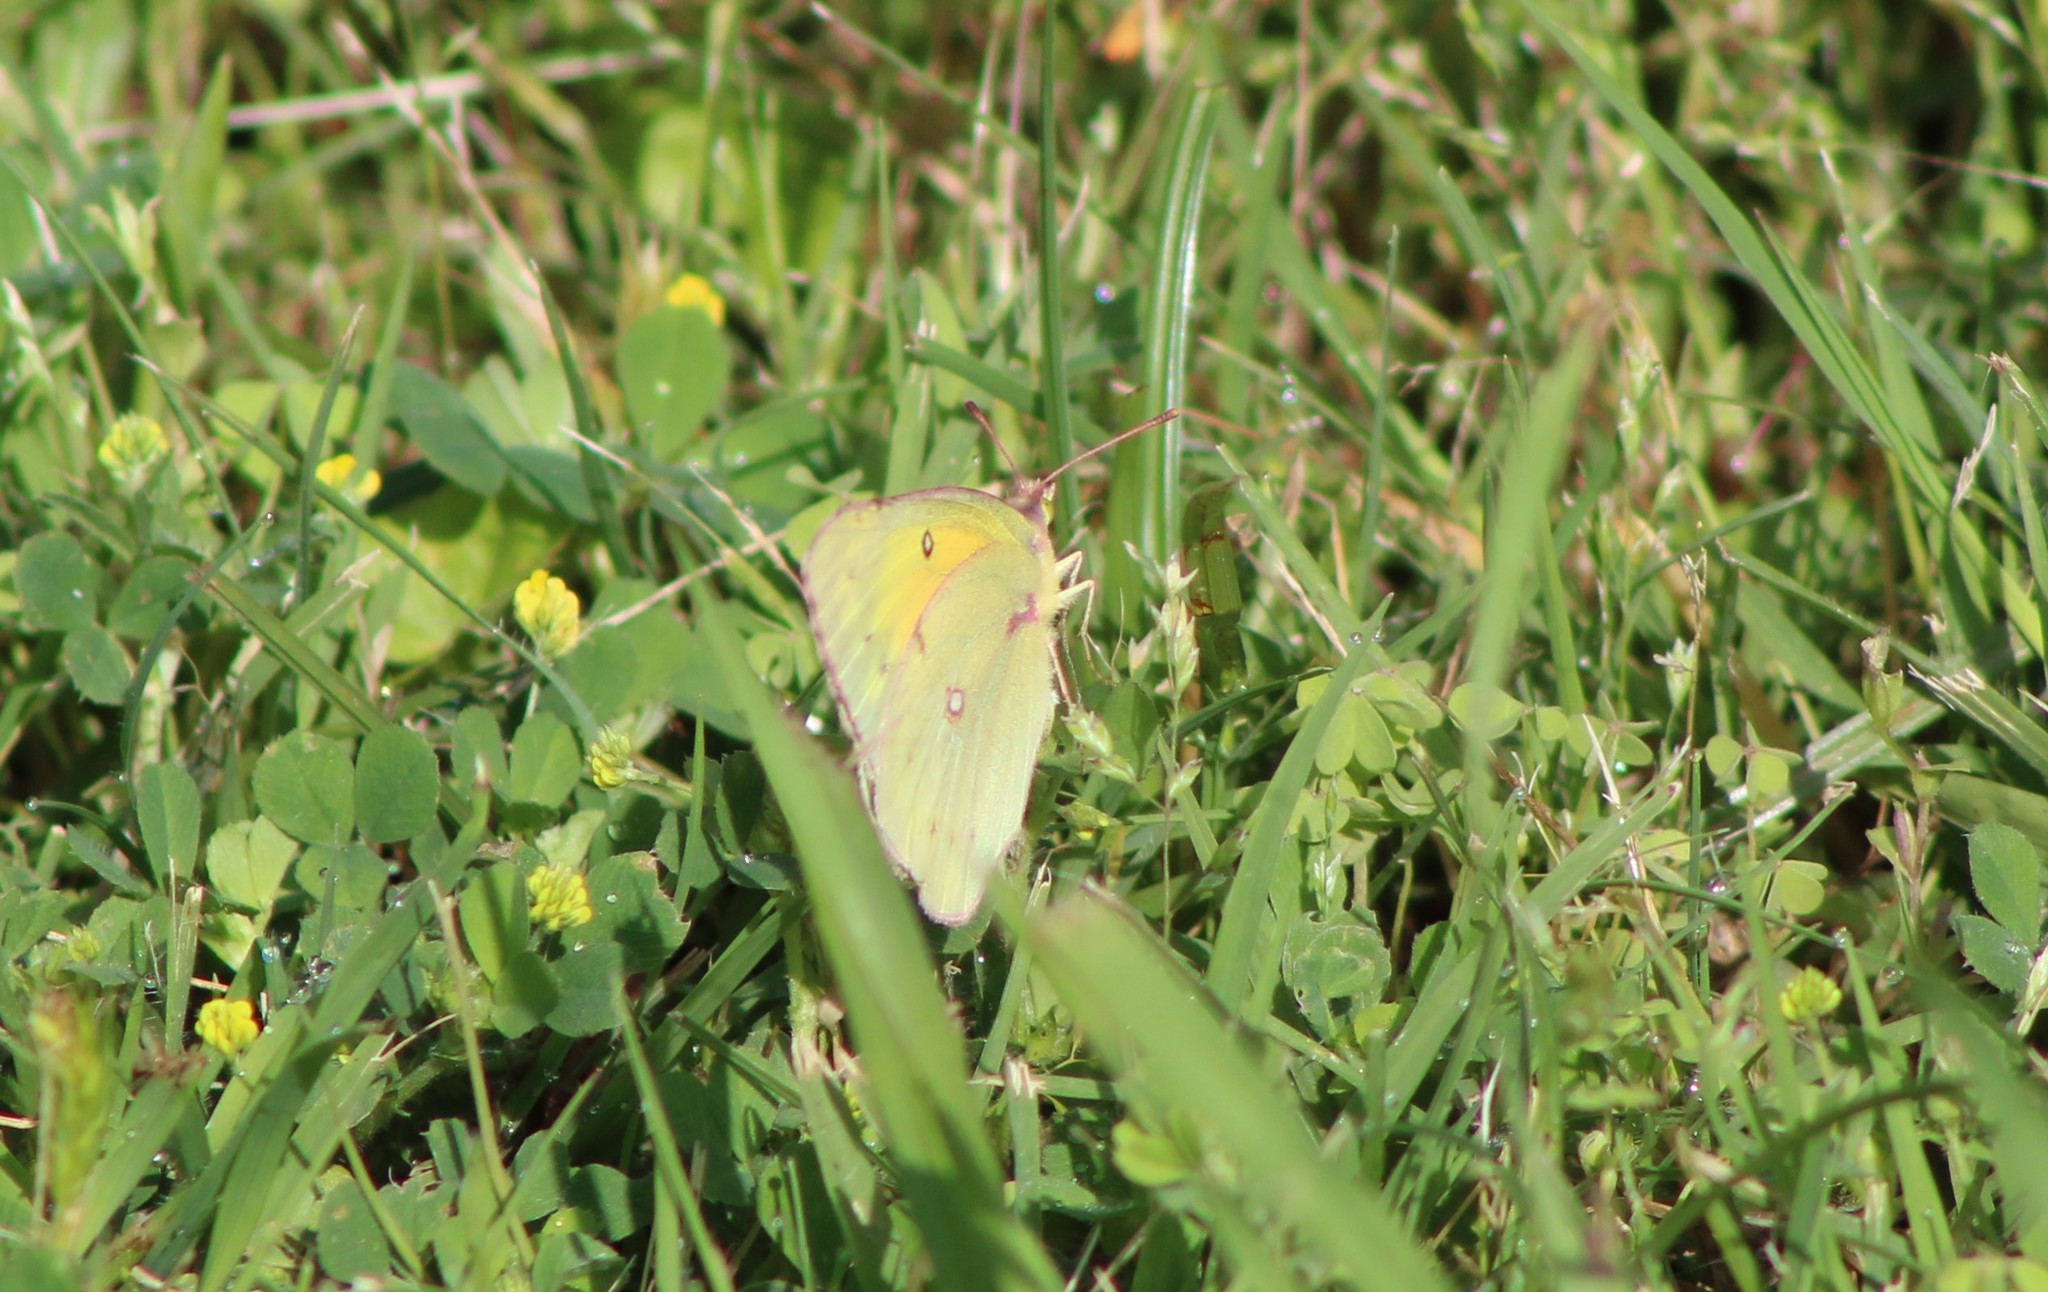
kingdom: Animalia
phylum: Arthropoda
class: Insecta
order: Lepidoptera
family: Pieridae
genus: Colias
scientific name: Colias eurytheme
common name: Alfalfa butterfly
